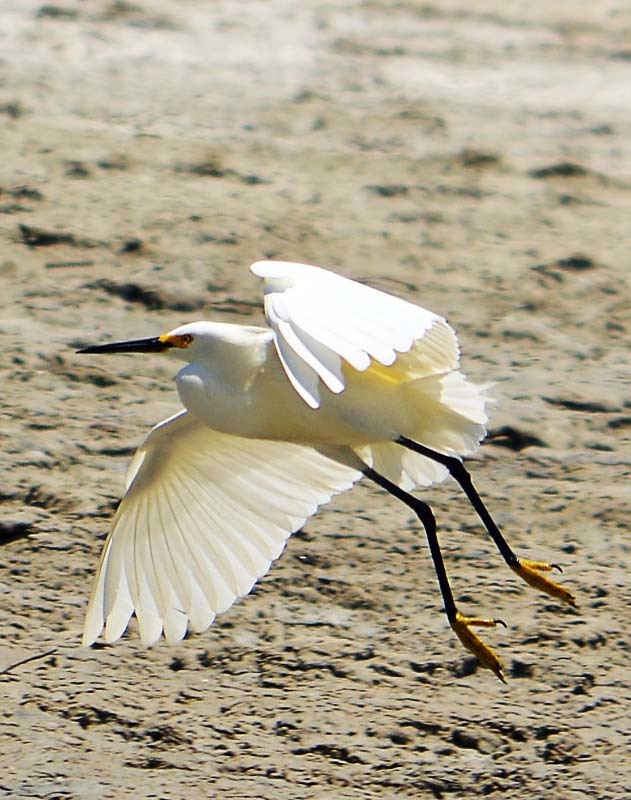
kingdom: Animalia
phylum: Chordata
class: Aves
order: Pelecaniformes
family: Ardeidae
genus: Egretta
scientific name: Egretta thula
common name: Snowy egret
